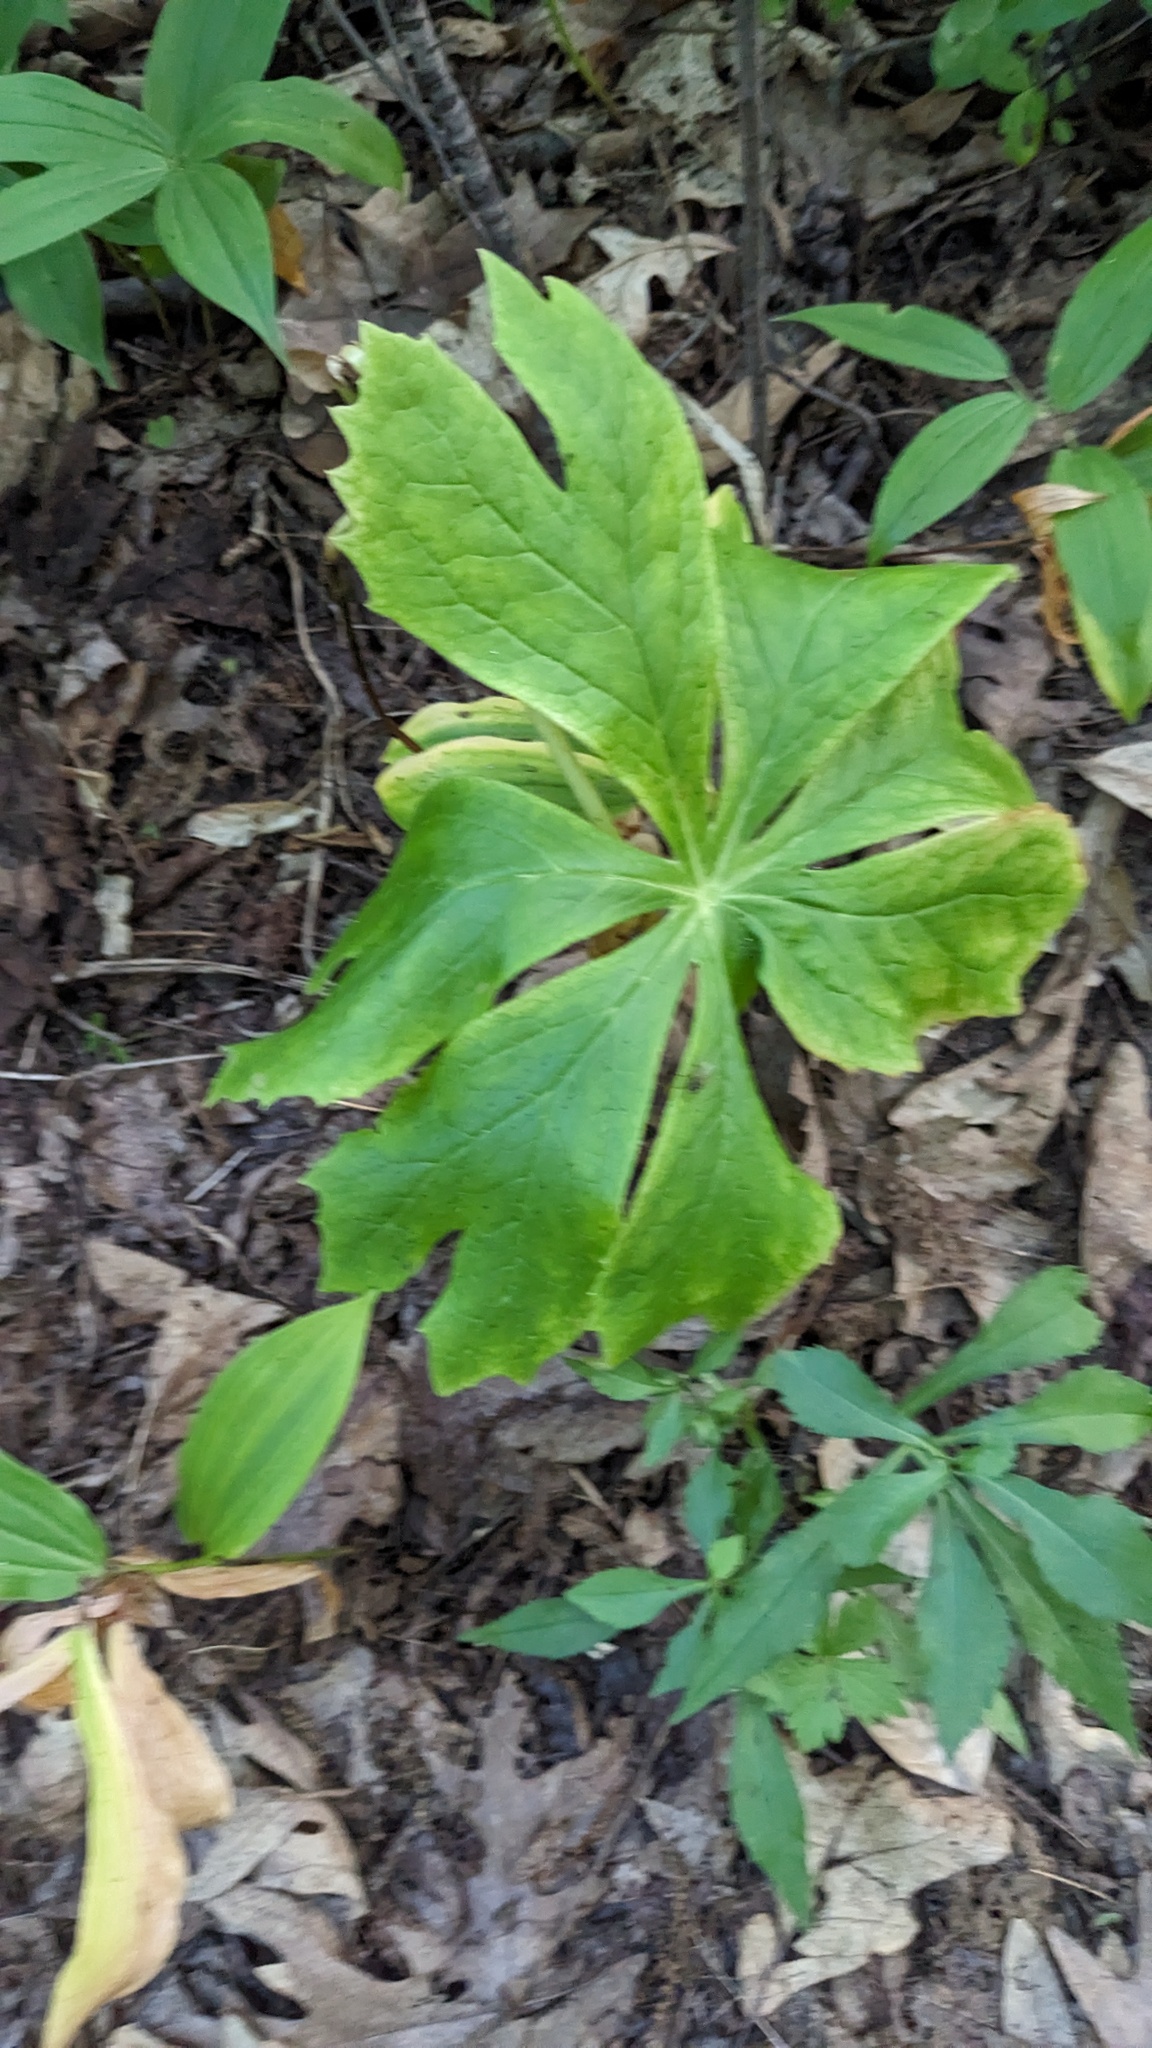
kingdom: Plantae
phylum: Tracheophyta
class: Magnoliopsida
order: Ranunculales
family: Berberidaceae
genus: Podophyllum
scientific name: Podophyllum peltatum
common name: Wild mandrake
